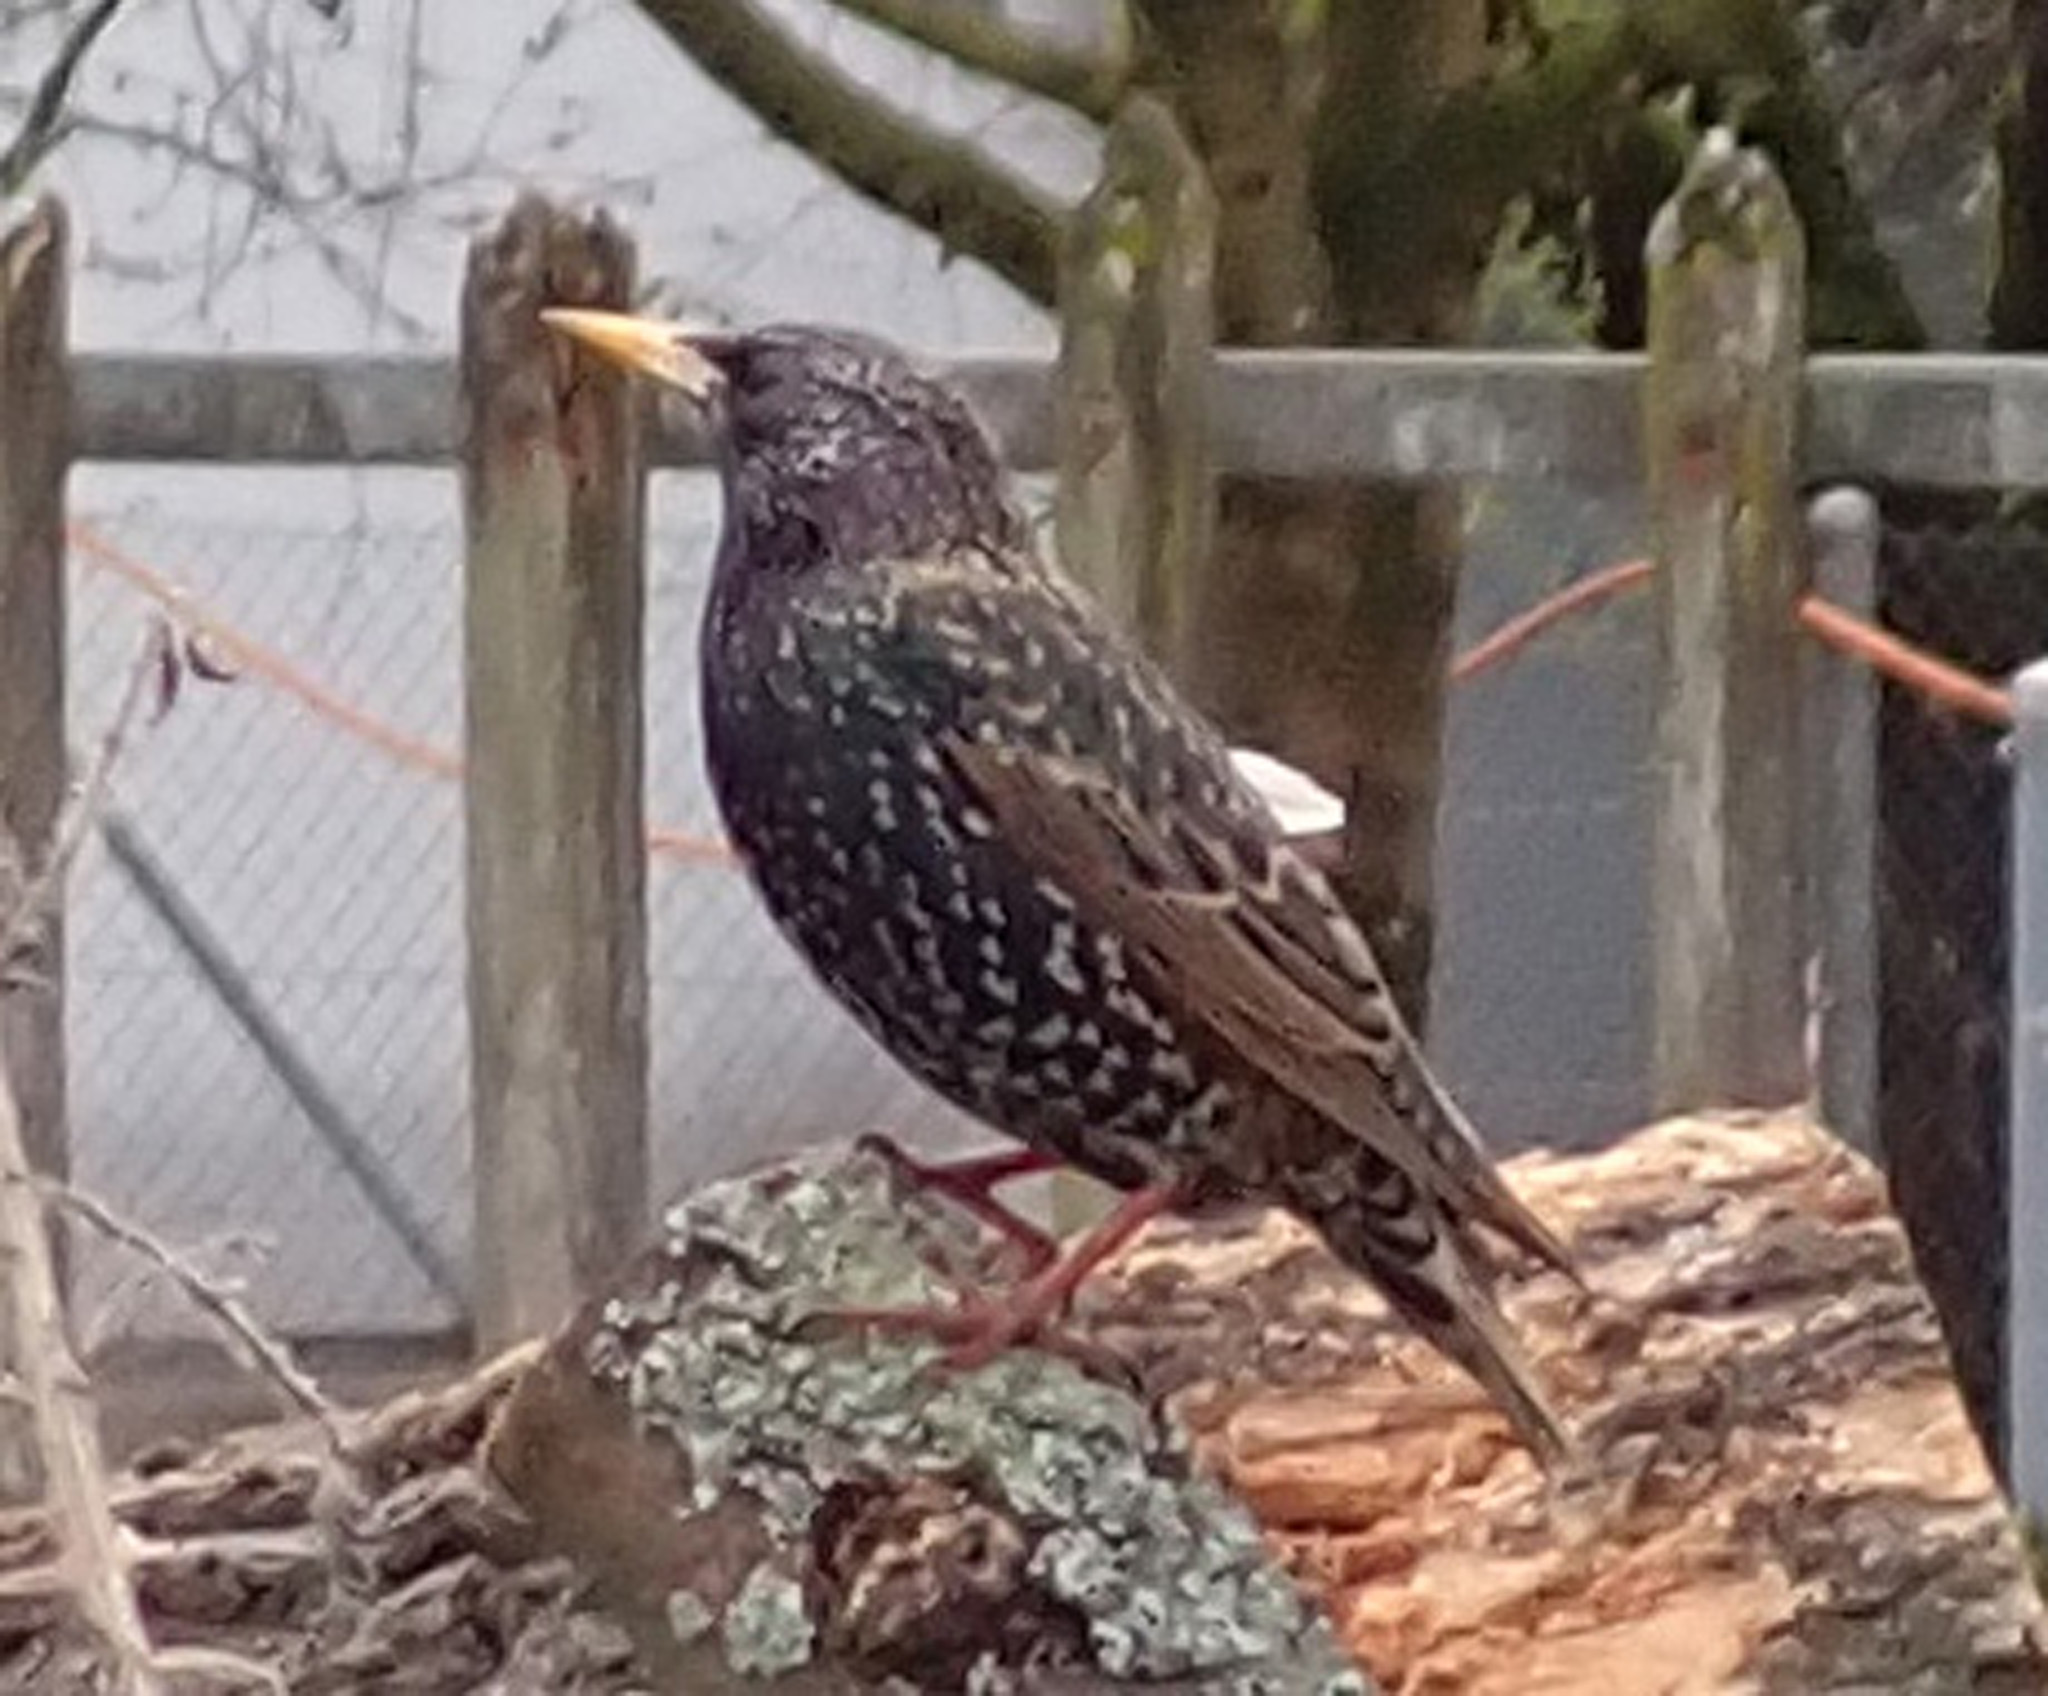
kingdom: Animalia
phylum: Chordata
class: Aves
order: Passeriformes
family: Sturnidae
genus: Sturnus
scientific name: Sturnus vulgaris
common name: Common starling
